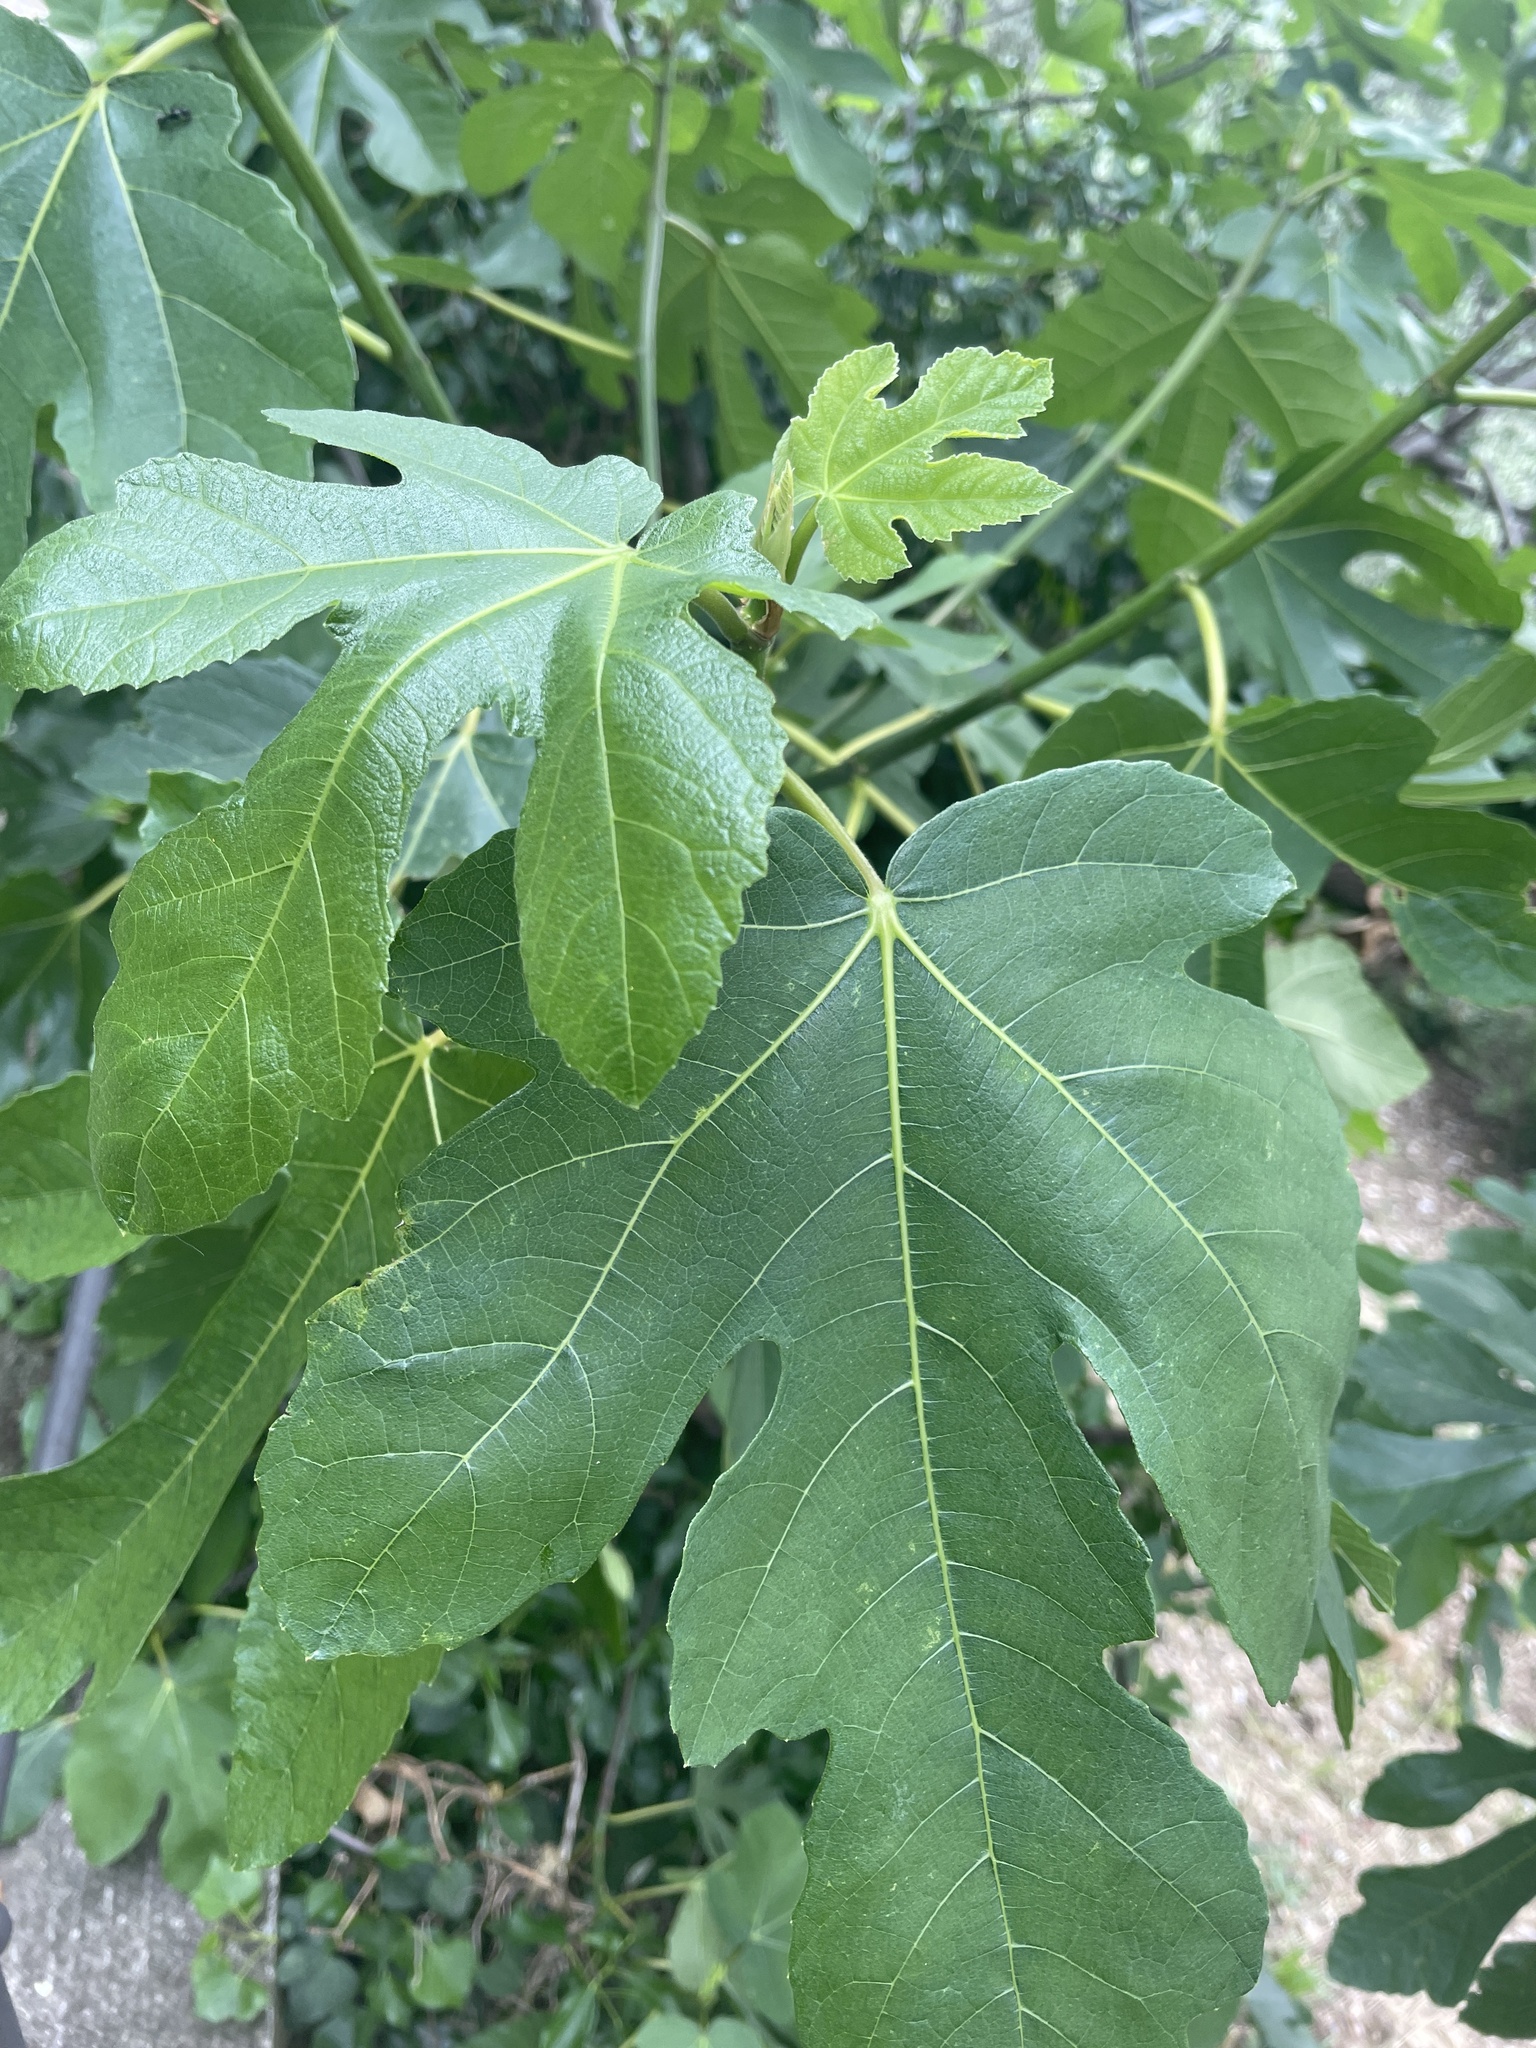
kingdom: Plantae
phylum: Tracheophyta
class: Magnoliopsida
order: Rosales
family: Moraceae
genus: Ficus
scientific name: Ficus carica
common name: Fig
